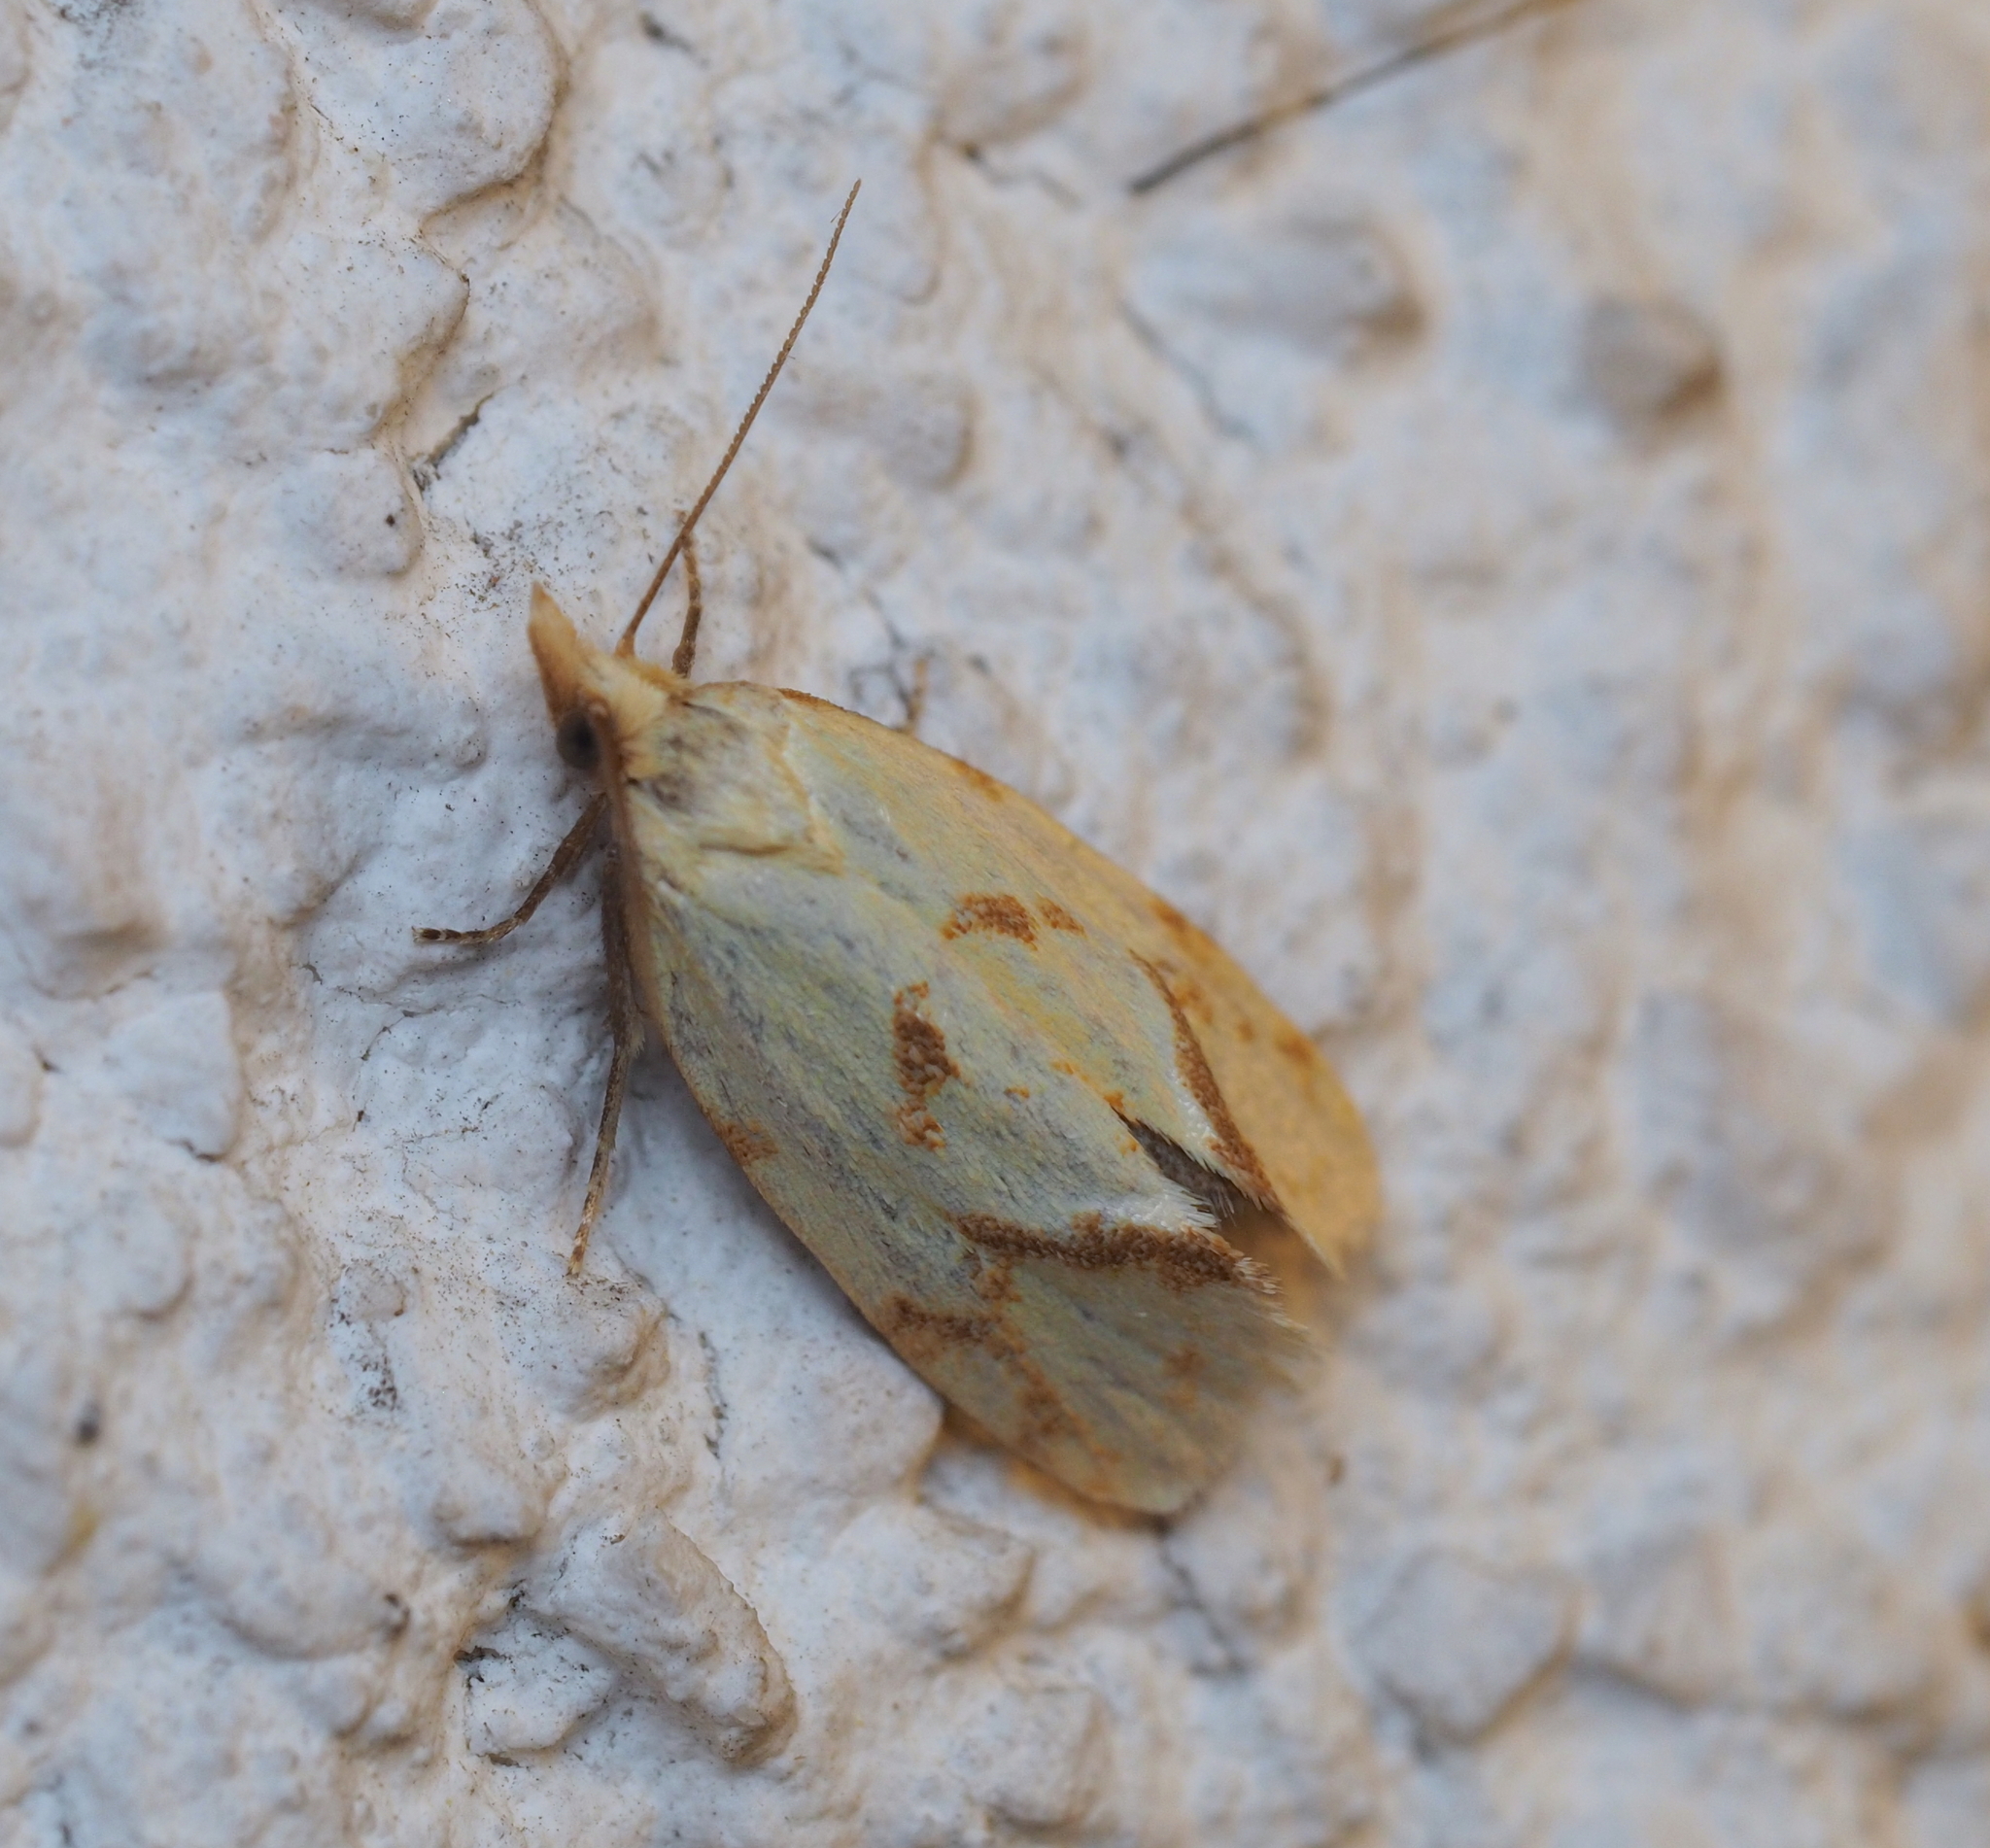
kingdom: Animalia
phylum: Arthropoda
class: Insecta
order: Lepidoptera
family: Tortricidae
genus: Agapeta
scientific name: Agapeta hamana
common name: Common yellow conch
